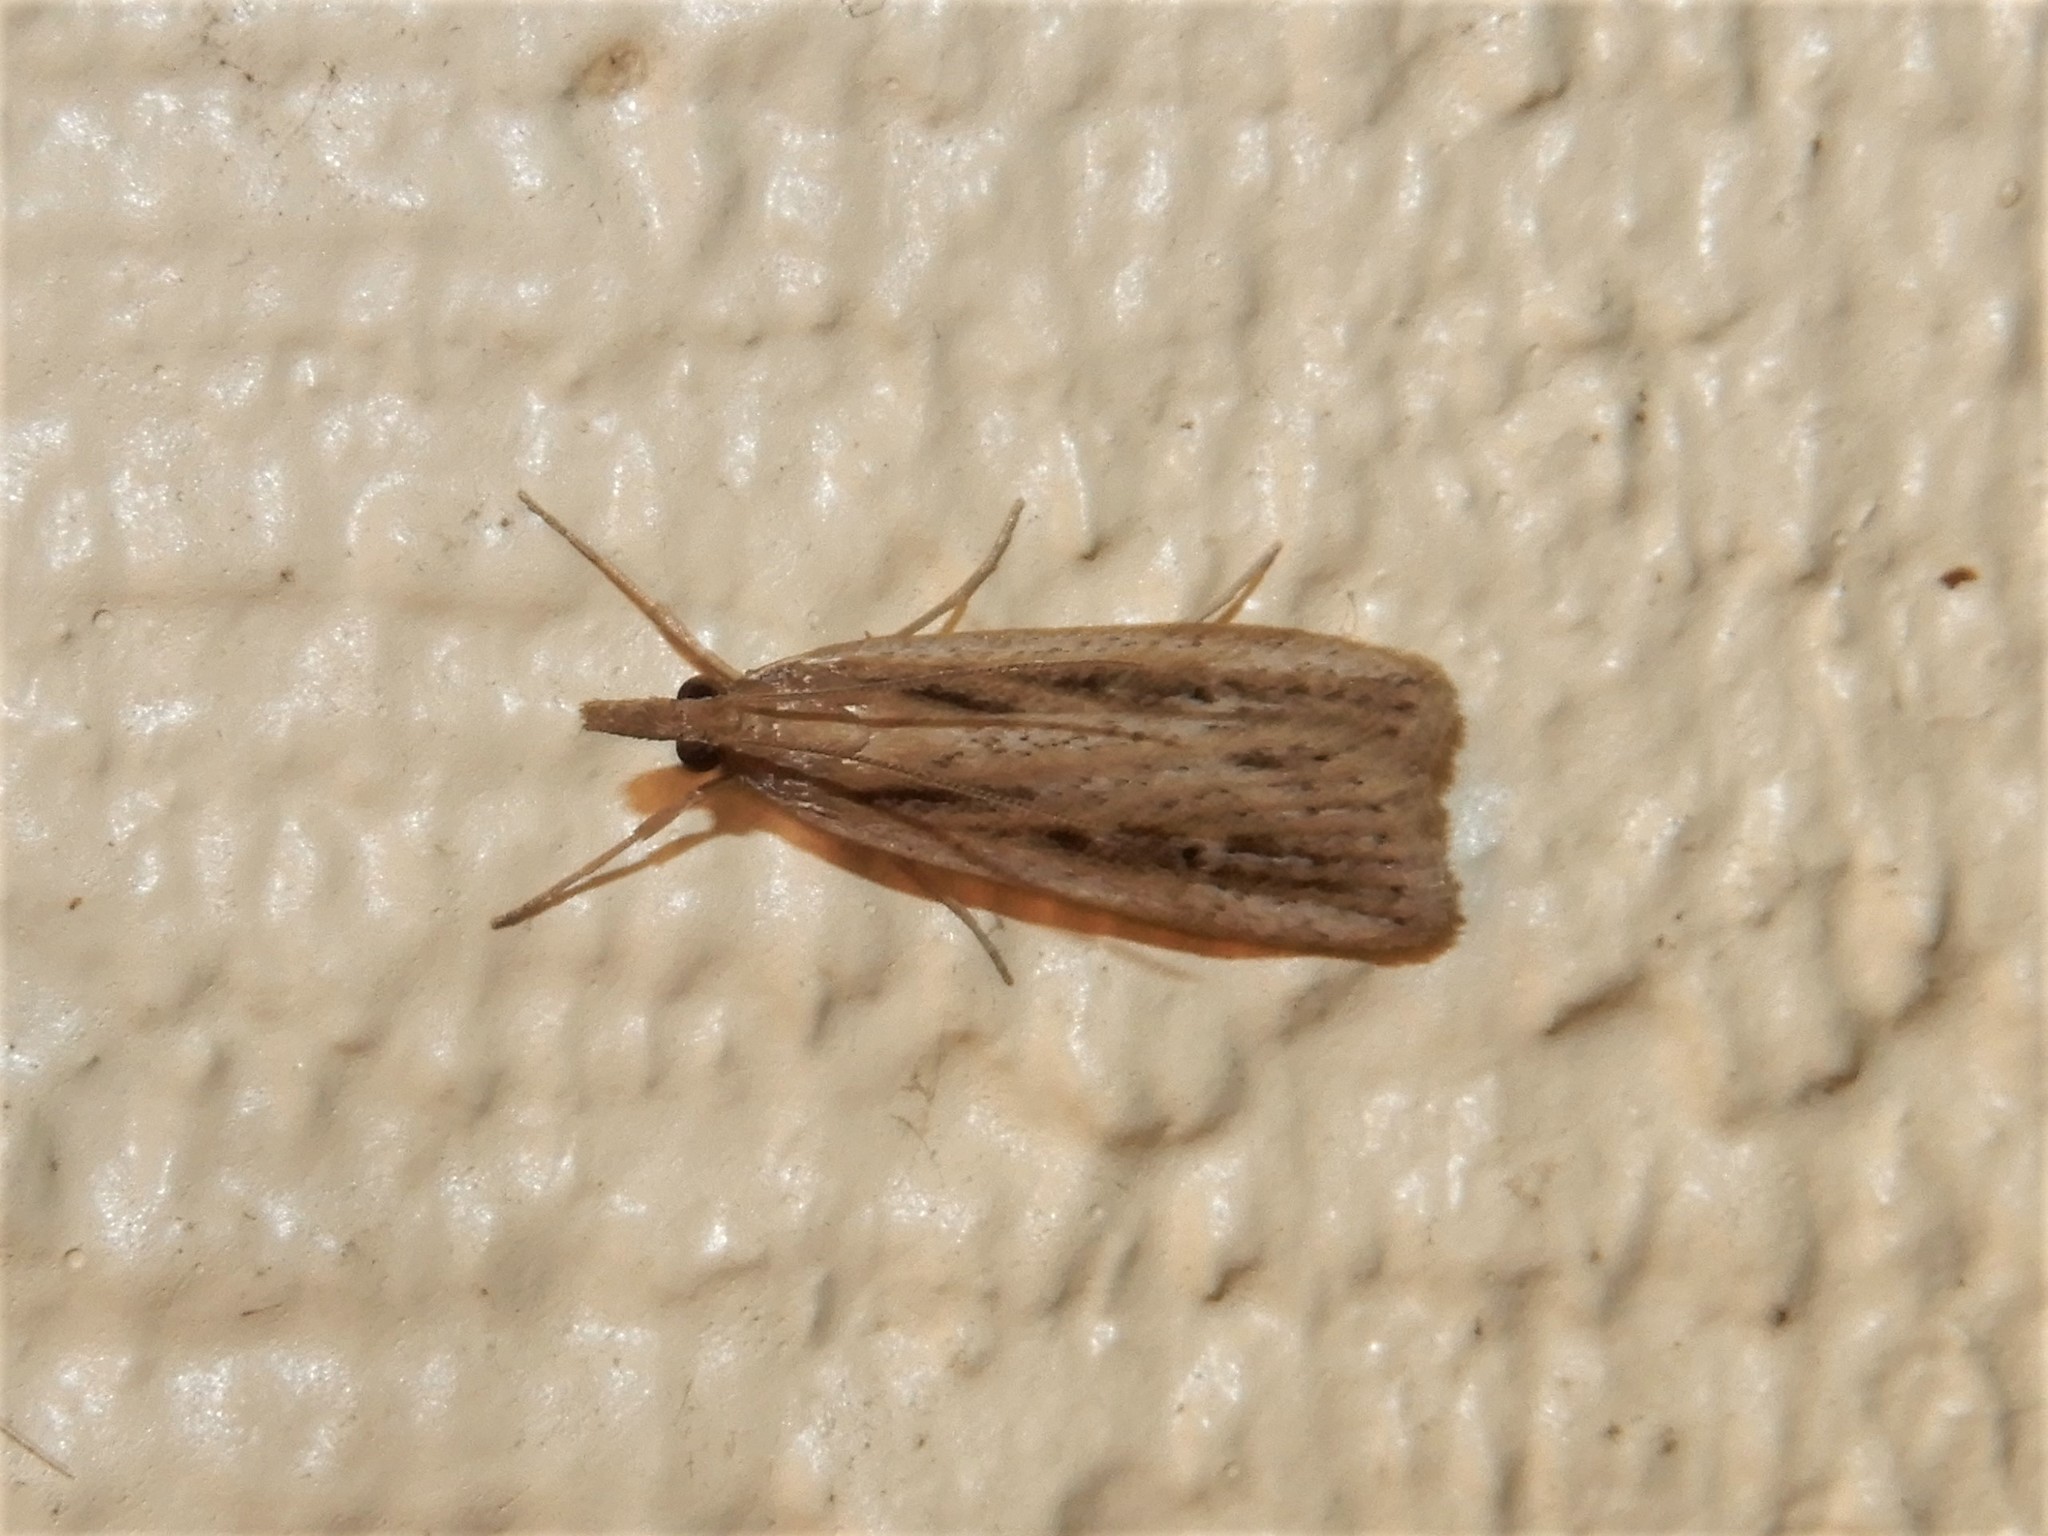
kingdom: Animalia
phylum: Arthropoda
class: Insecta
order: Lepidoptera
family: Crambidae
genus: Eudonia
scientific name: Eudonia sabulosella
